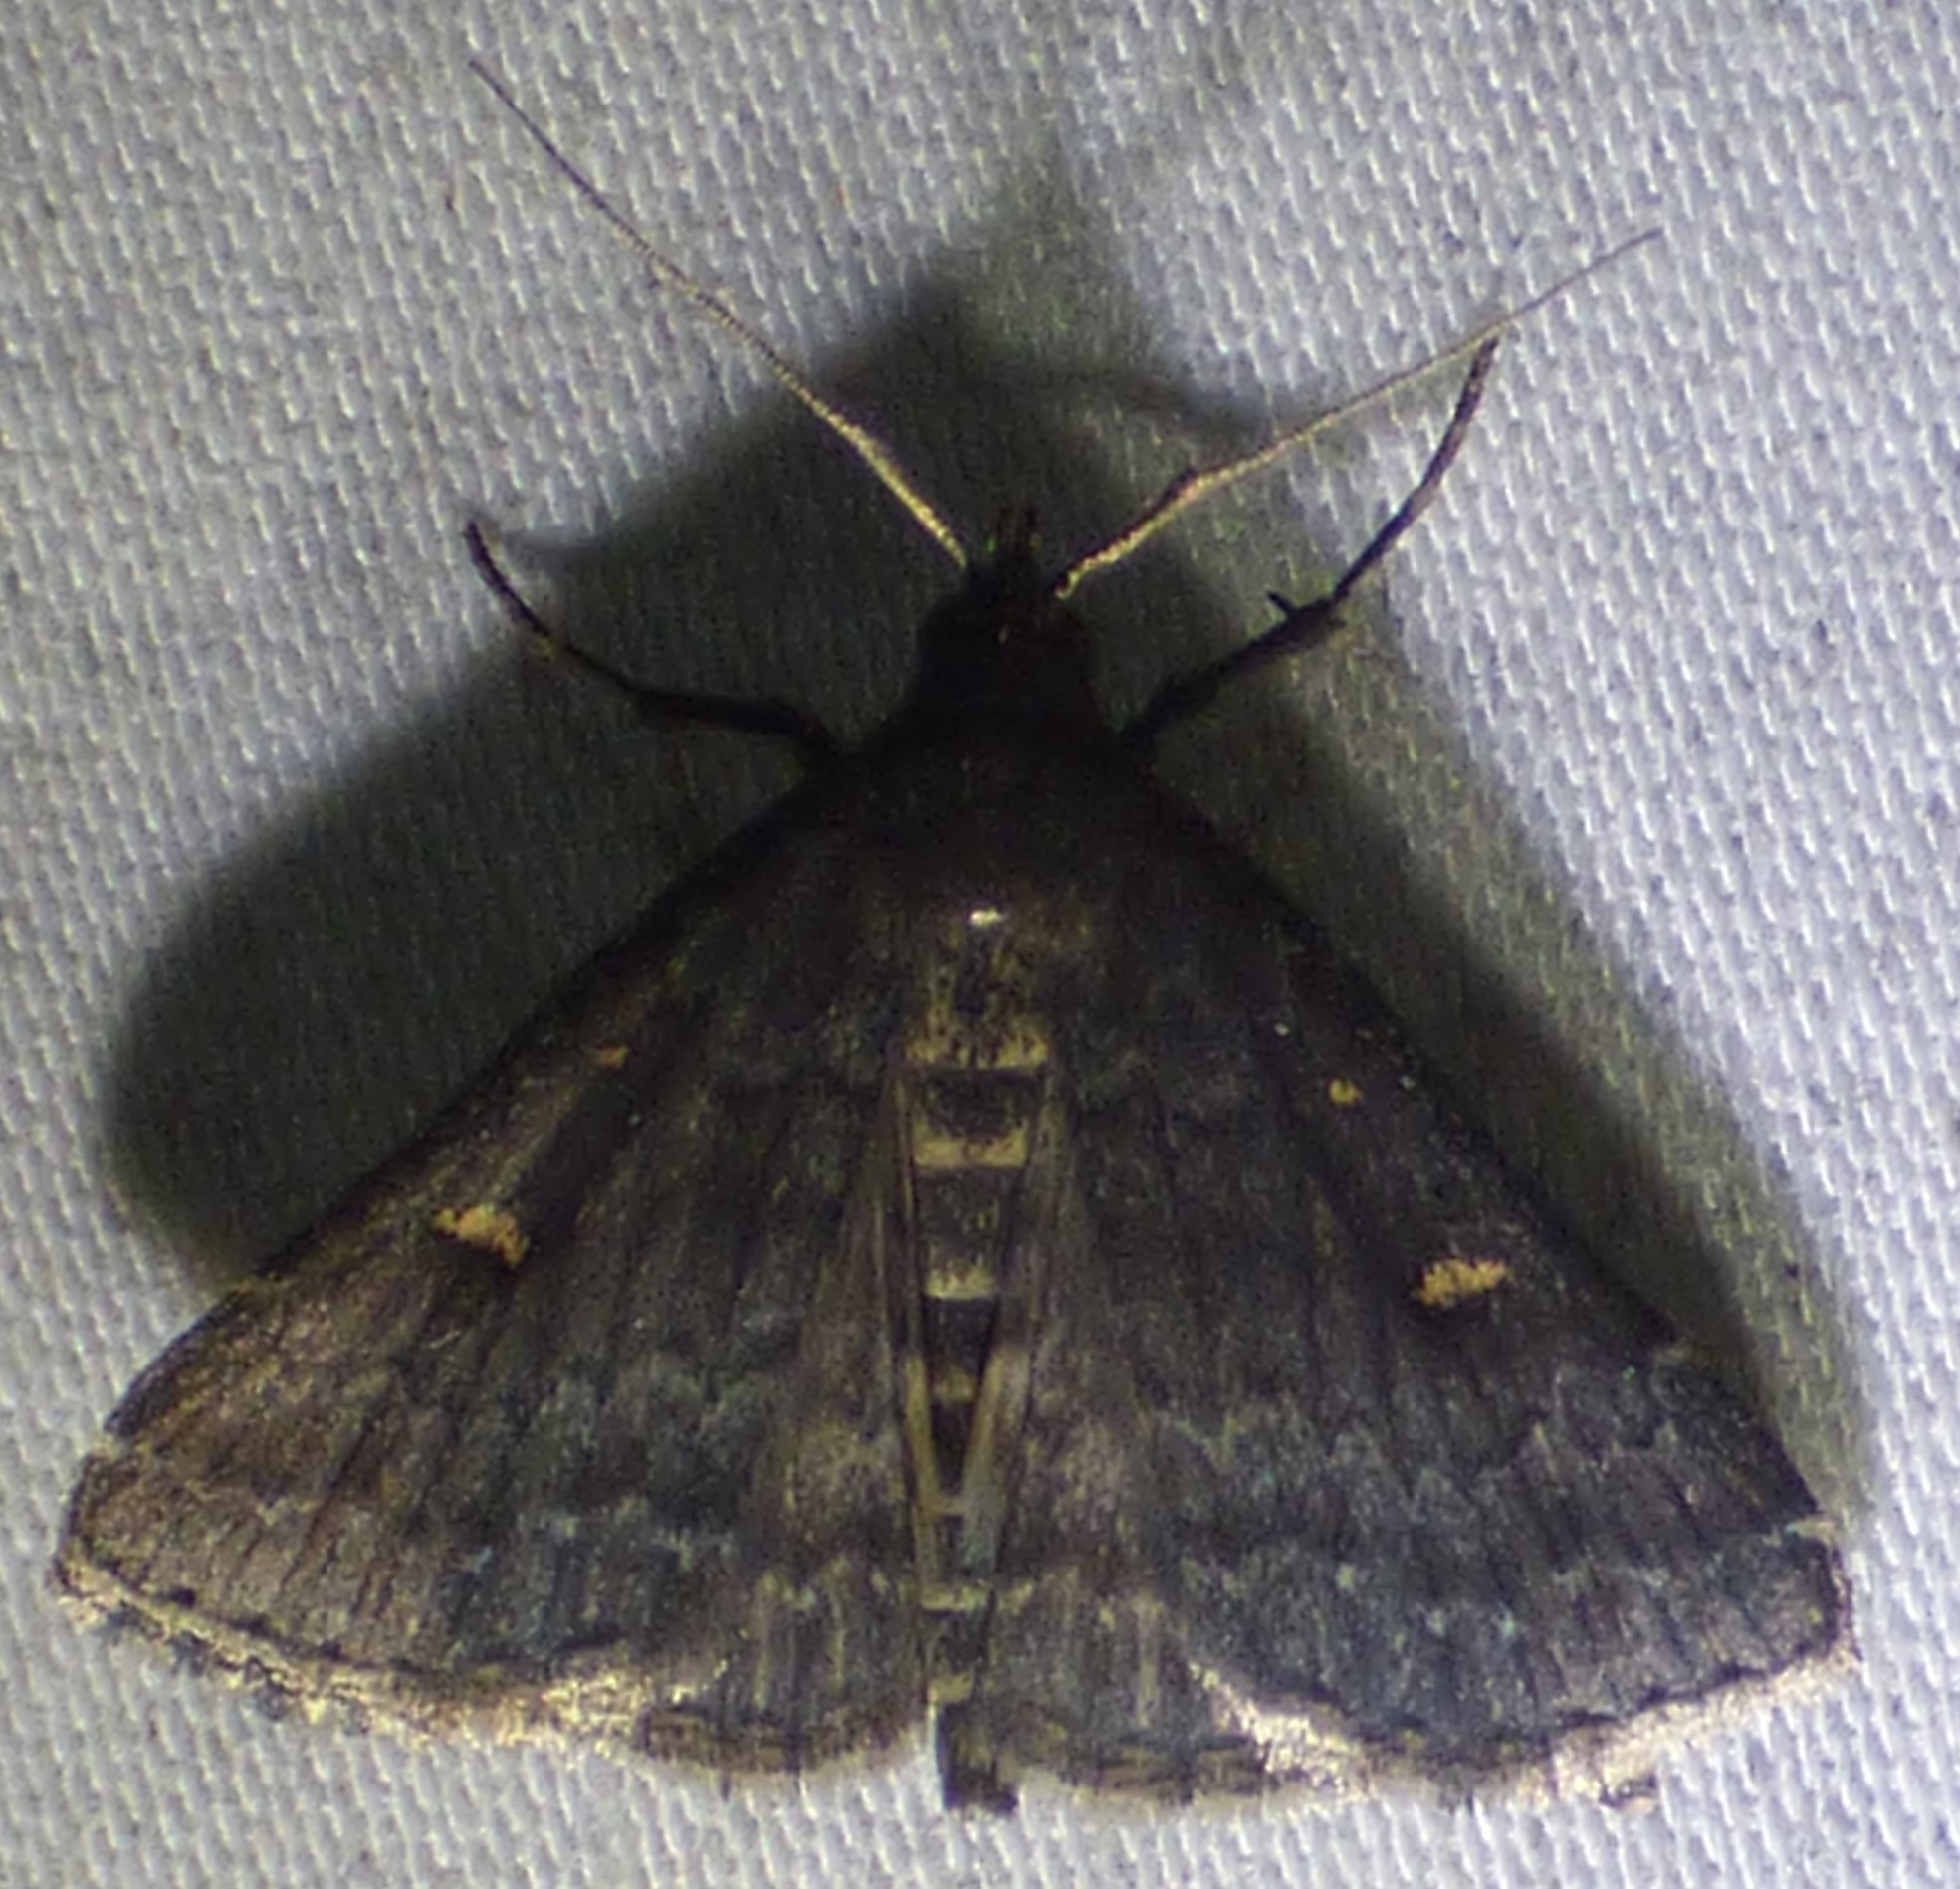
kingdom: Animalia
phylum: Arthropoda
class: Insecta
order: Lepidoptera
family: Erebidae
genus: Tetanolita
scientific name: Tetanolita mynesalis
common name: Smoky tetanolita moth
